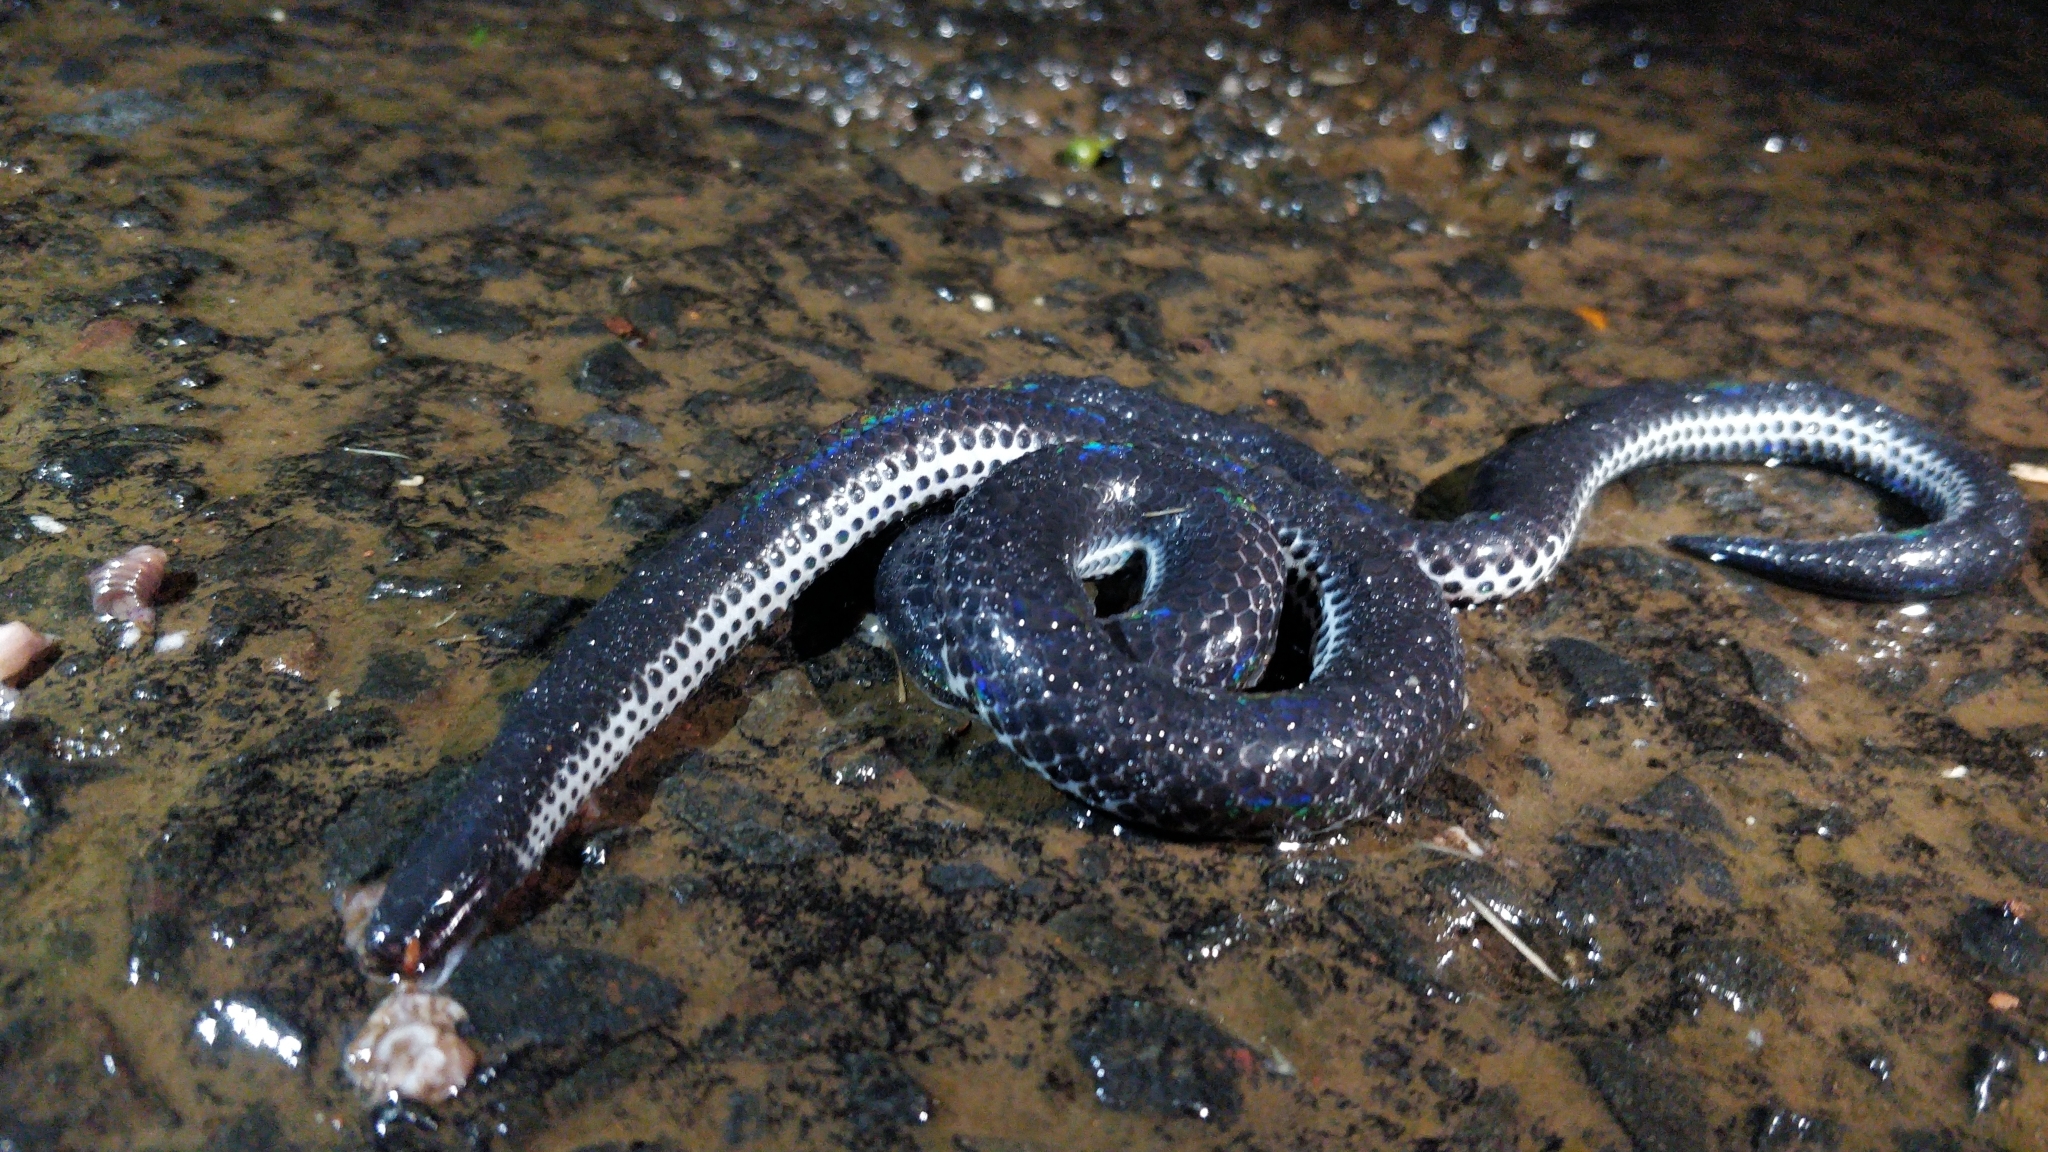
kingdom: Animalia
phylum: Chordata
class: Squamata
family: Uropeltidae
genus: Melanophidium
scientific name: Melanophidium khairei
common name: Khaire's black shieldtail
